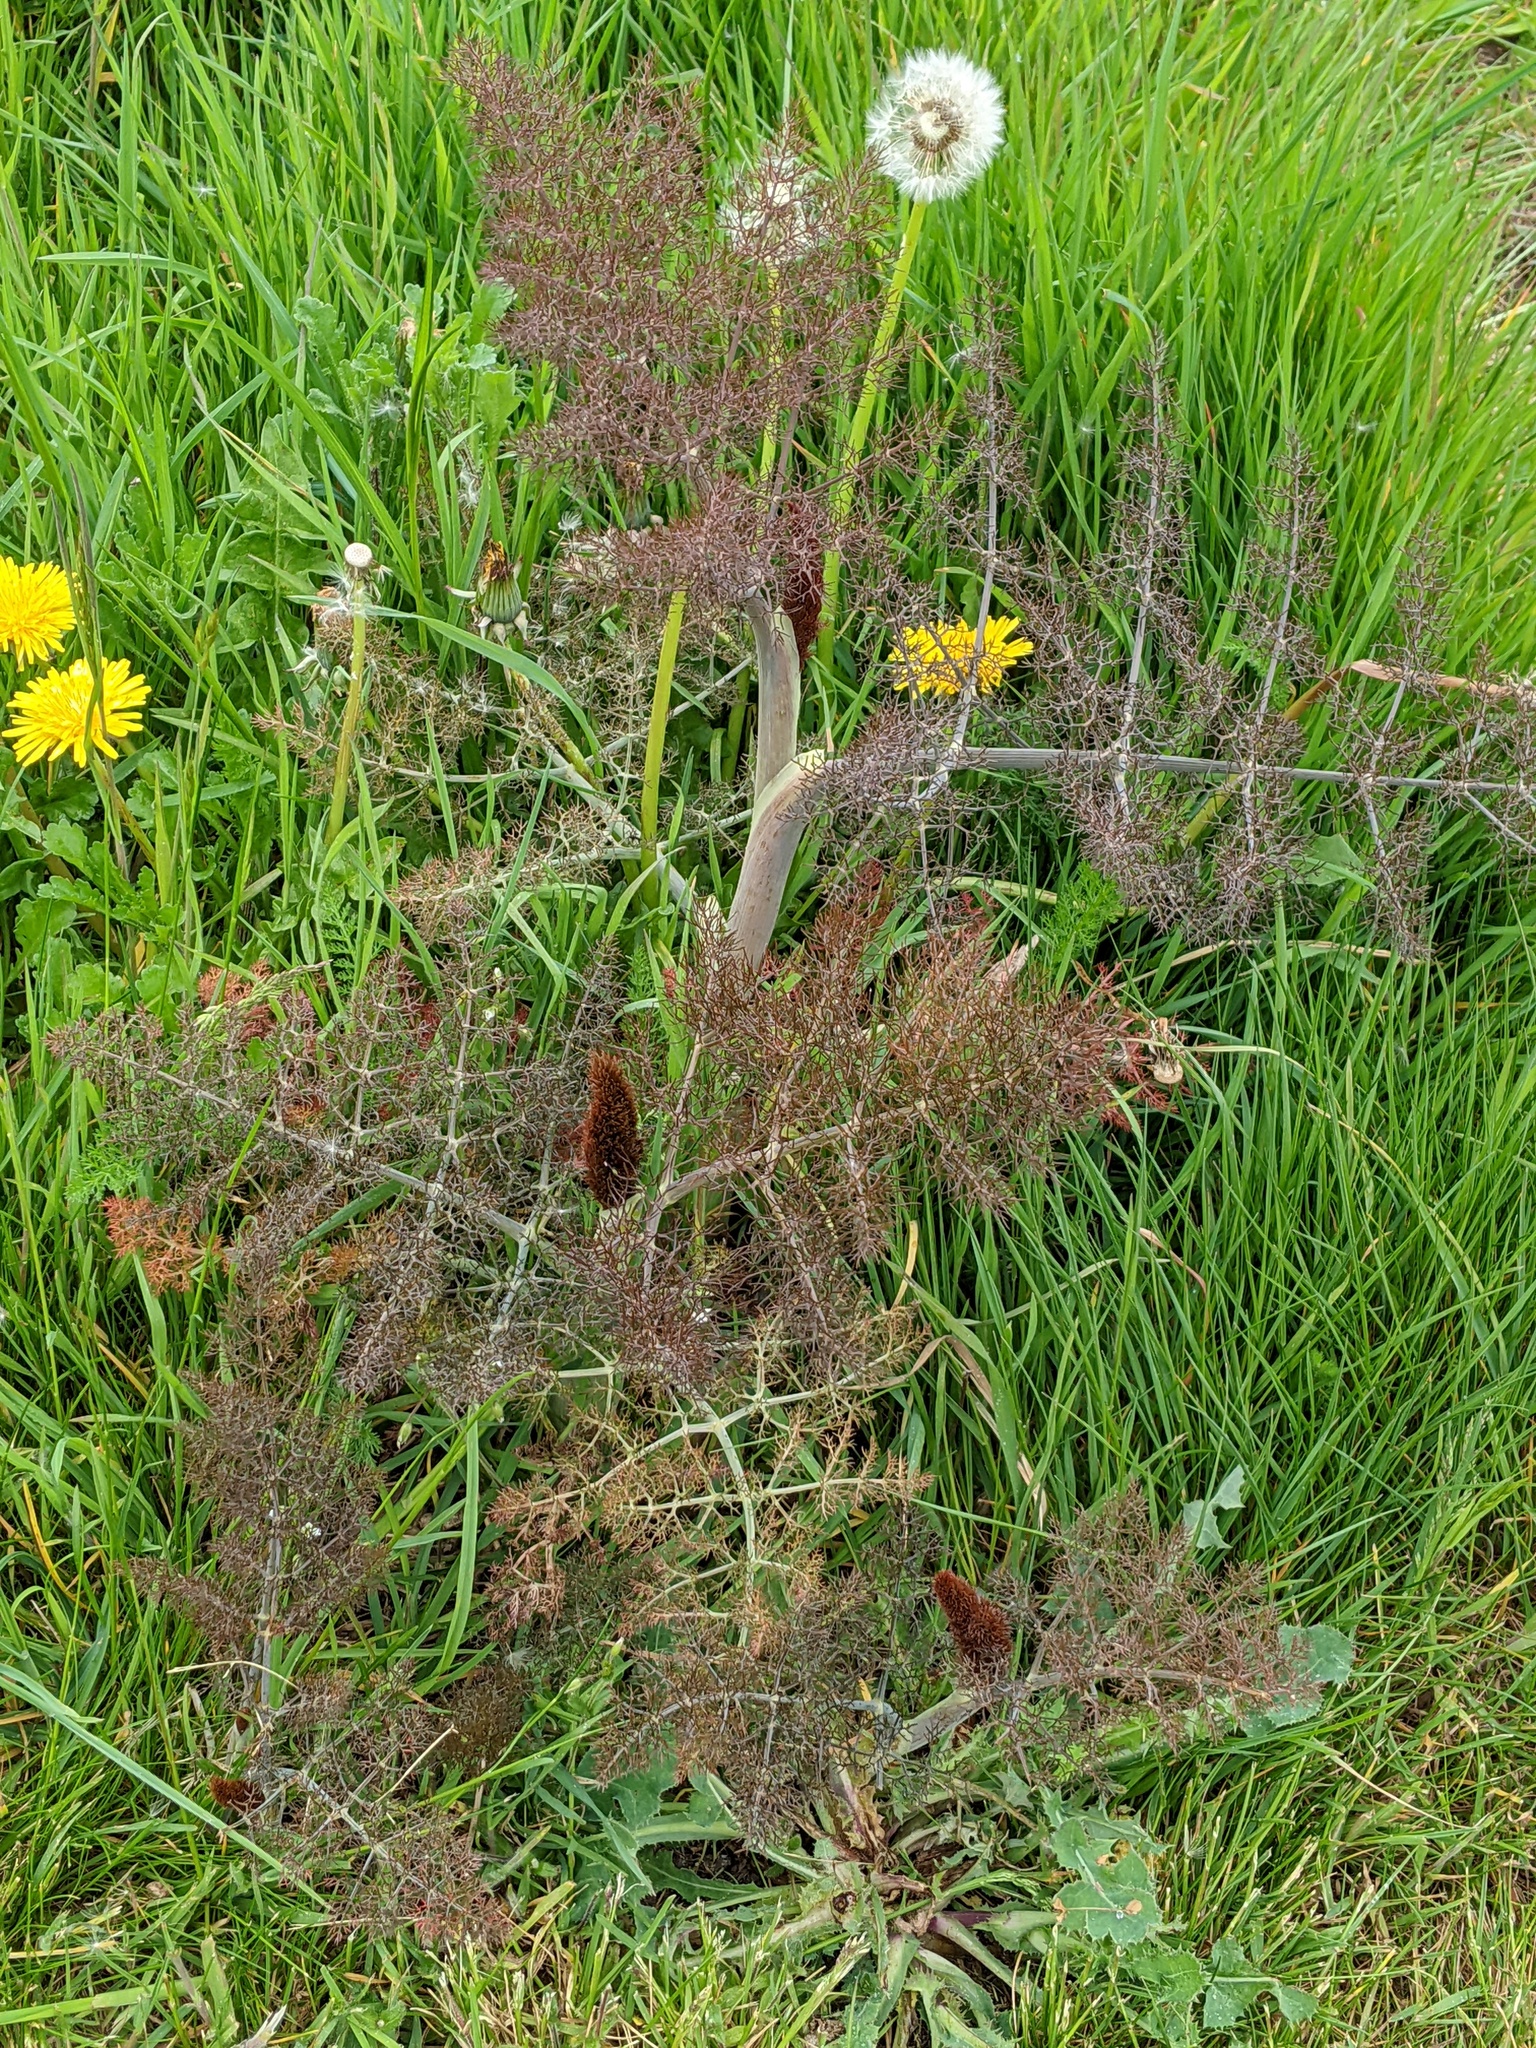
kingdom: Plantae
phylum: Tracheophyta
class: Magnoliopsida
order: Apiales
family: Apiaceae
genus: Foeniculum
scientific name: Foeniculum vulgare
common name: Fennel
